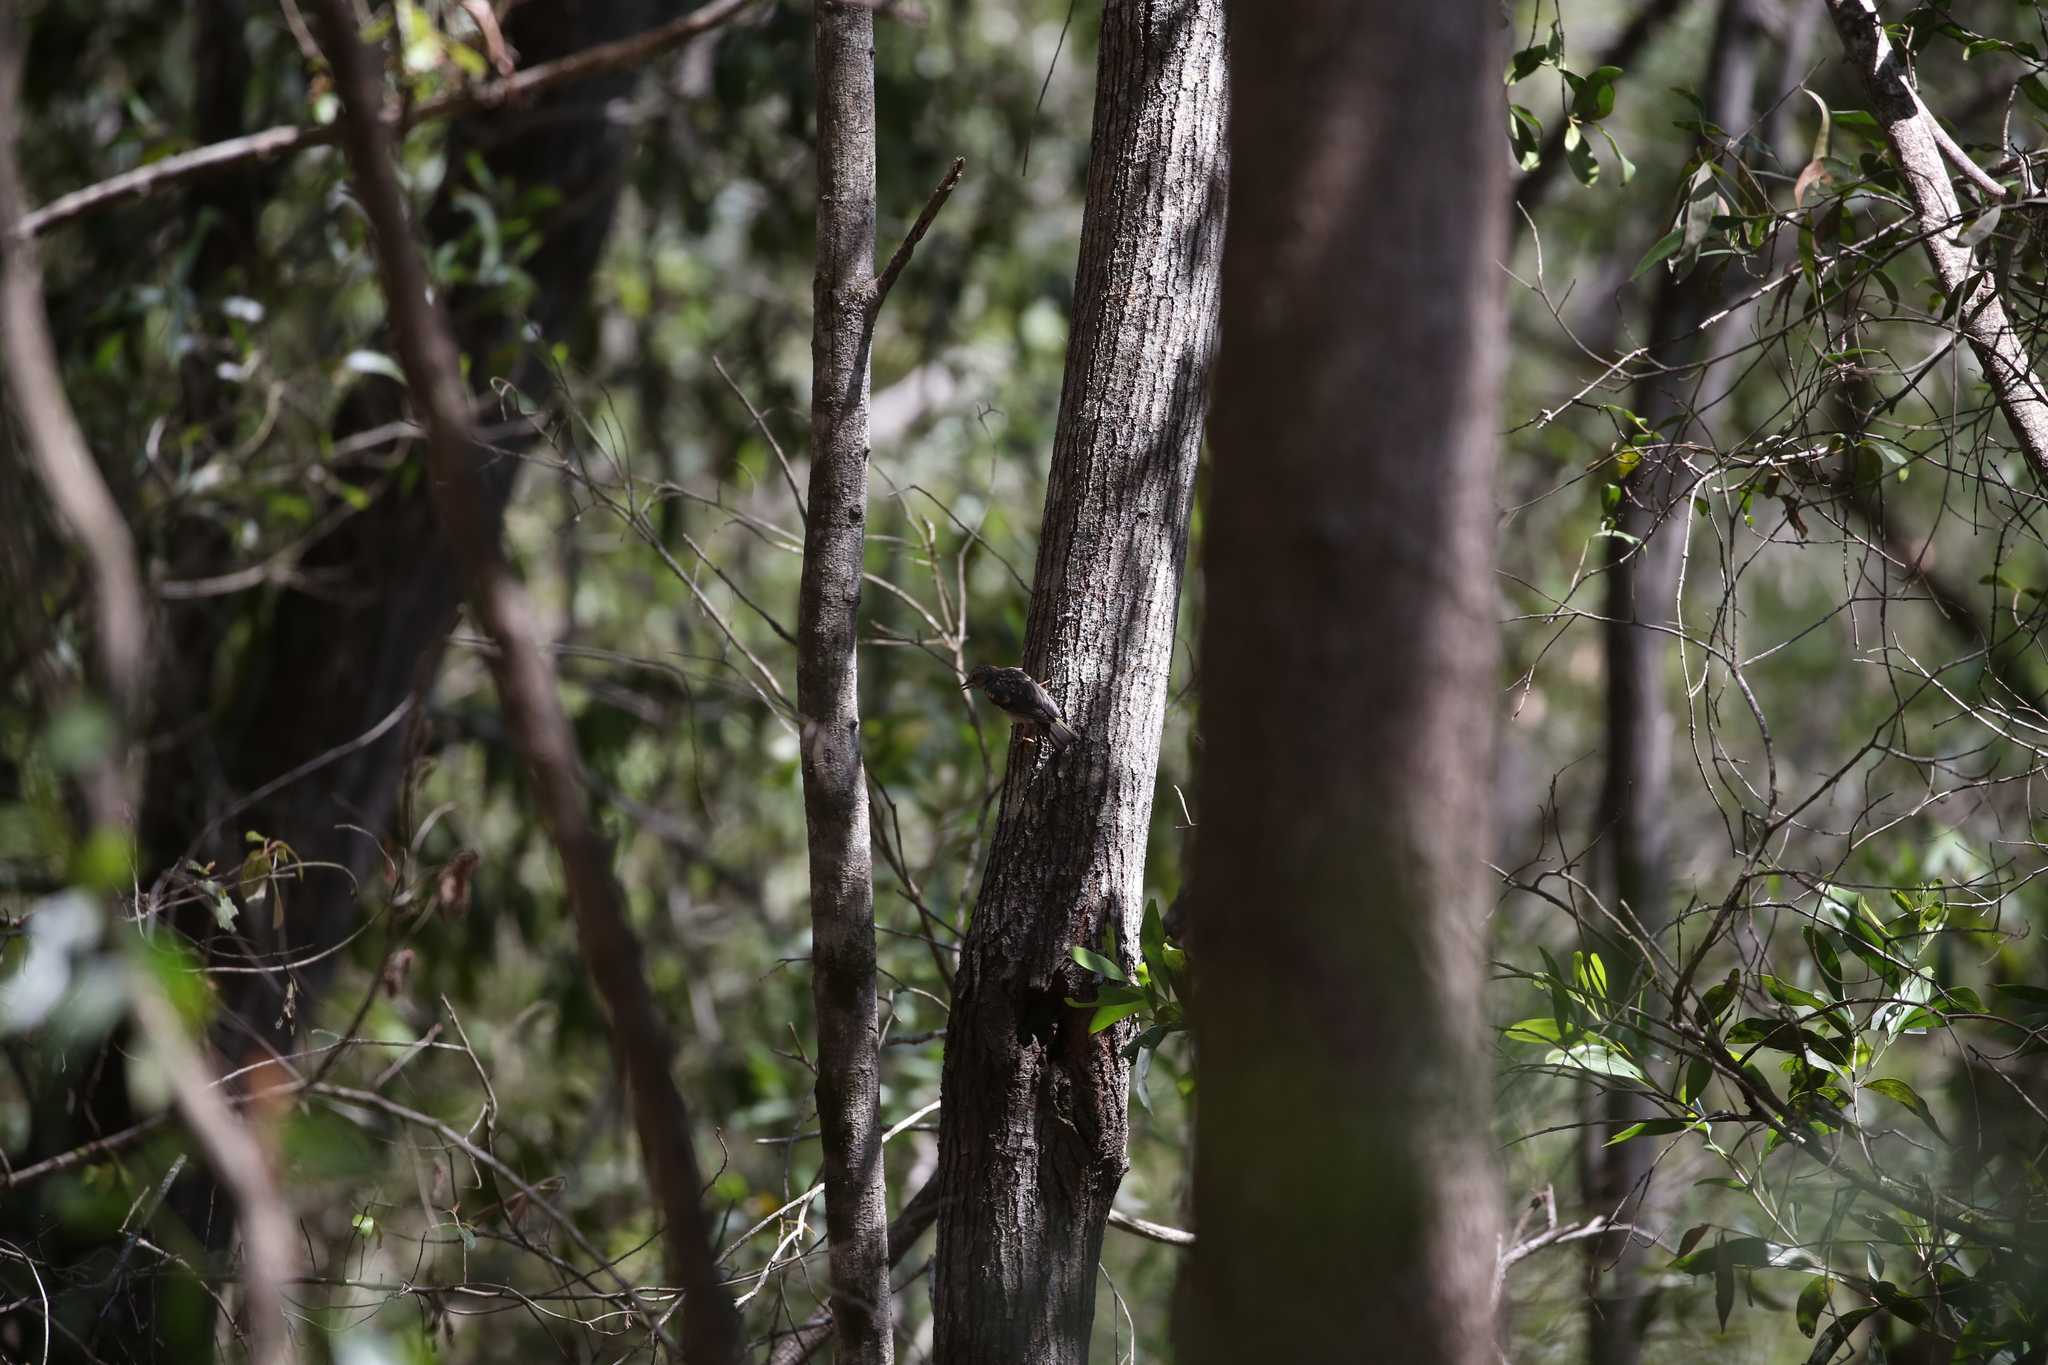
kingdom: Animalia
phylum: Chordata
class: Aves
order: Passeriformes
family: Petroicidae
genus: Eopsaltria
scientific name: Eopsaltria australis
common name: Eastern yellow robin
